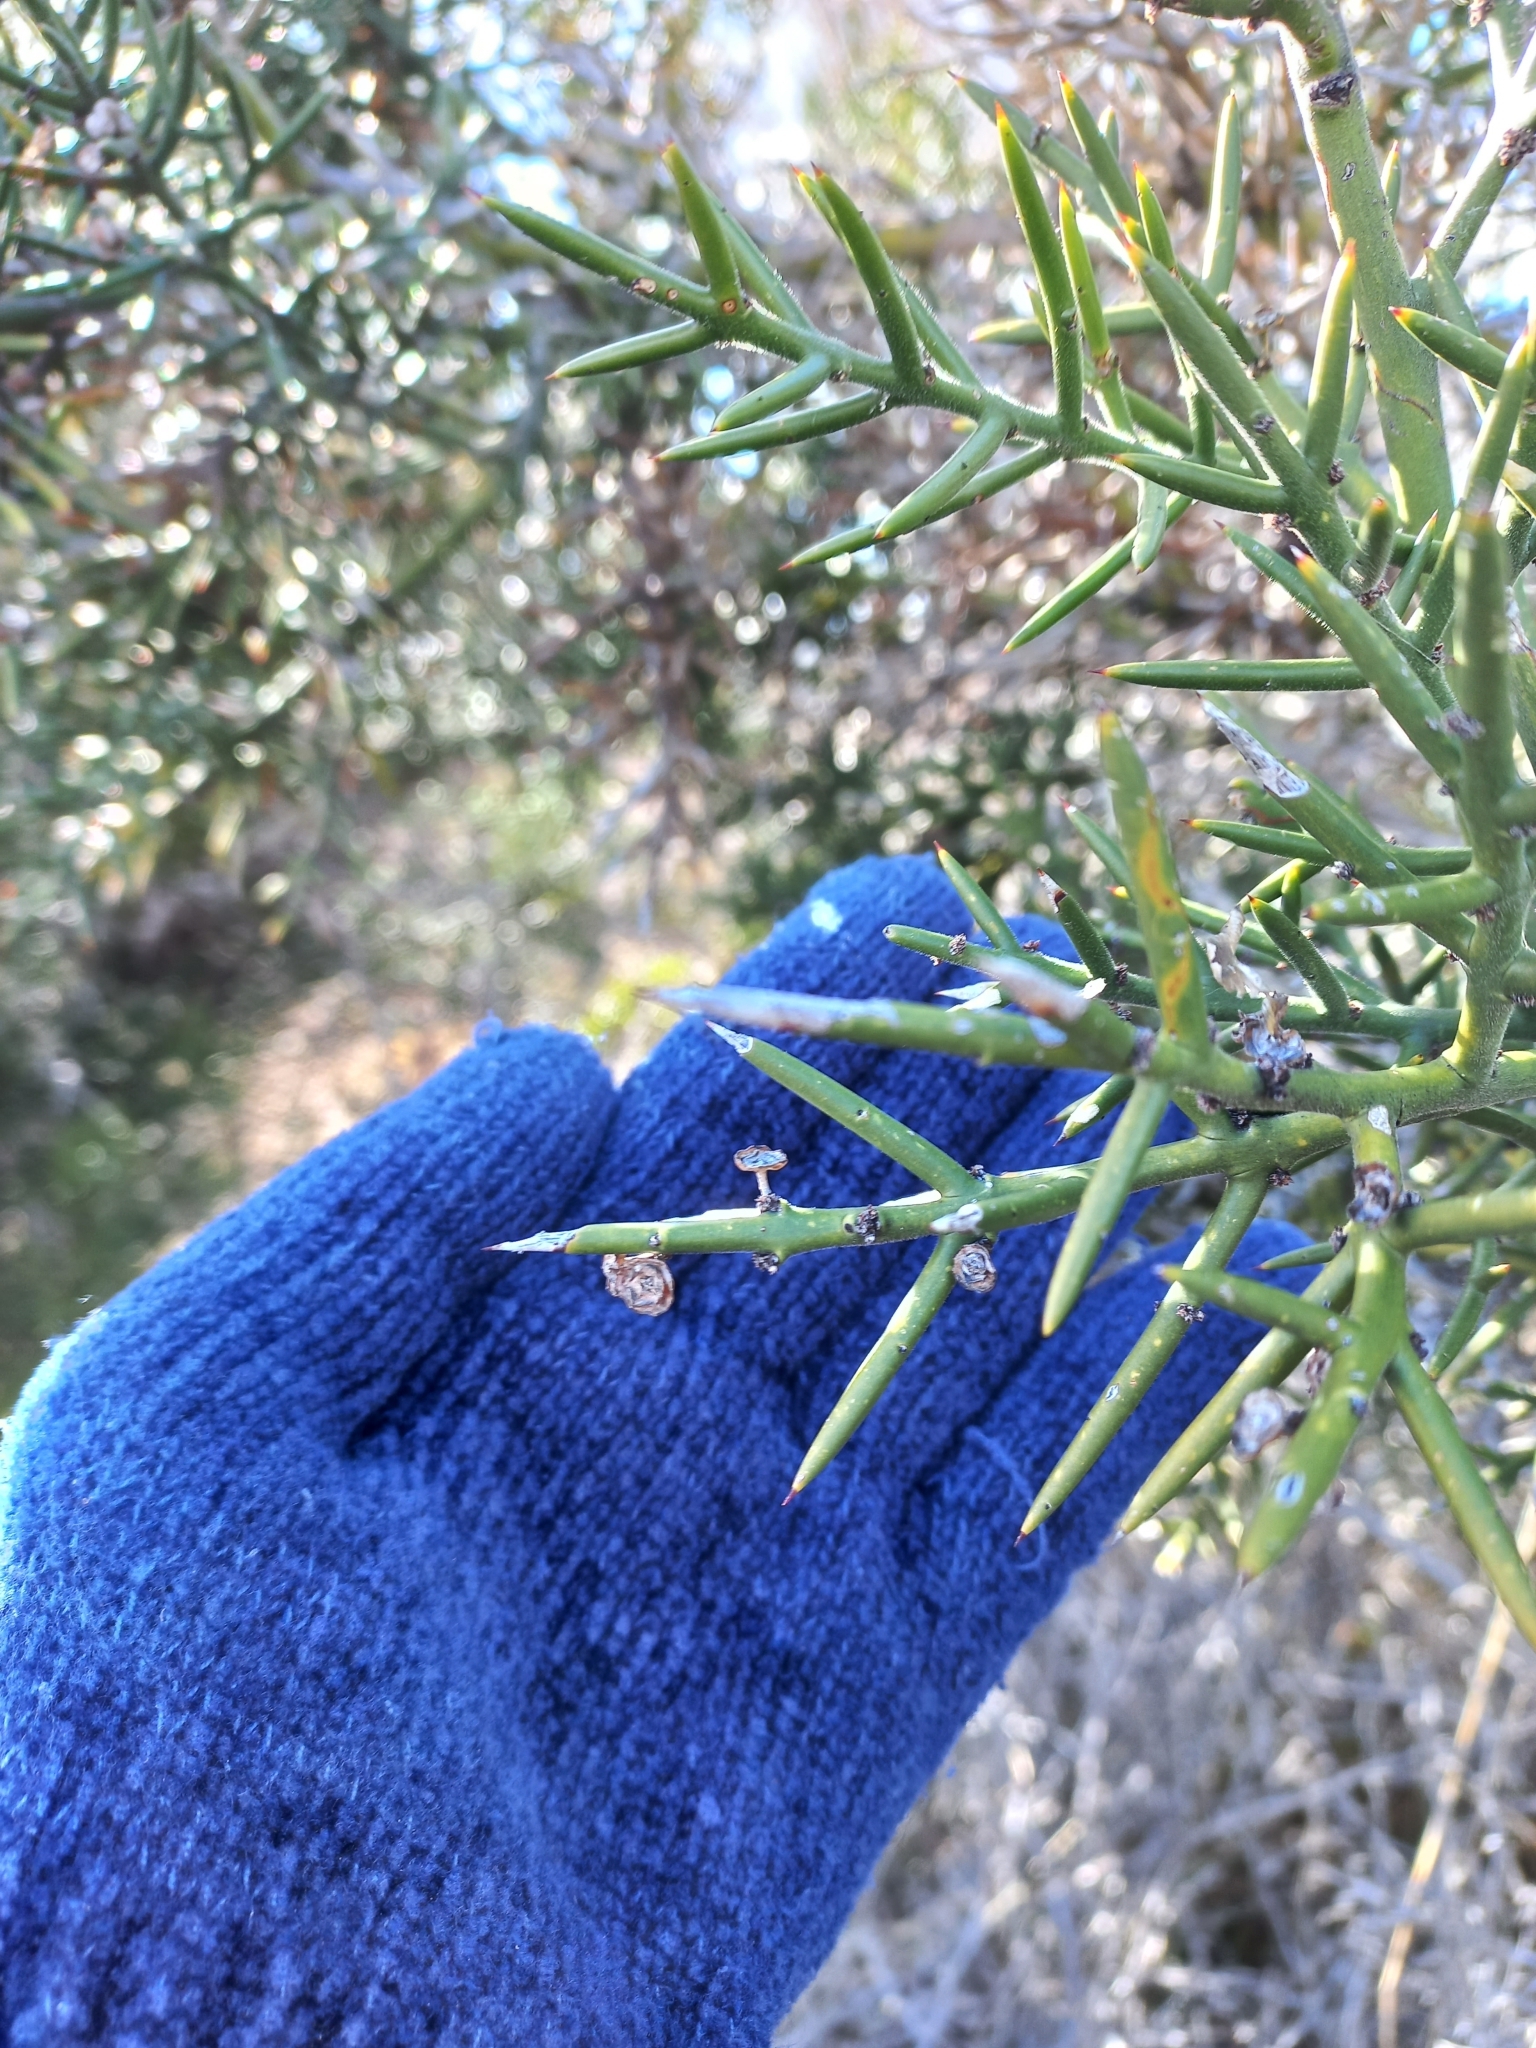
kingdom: Plantae
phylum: Tracheophyta
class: Magnoliopsida
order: Rosales
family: Rhamnaceae
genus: Colletia
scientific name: Colletia hystrix
